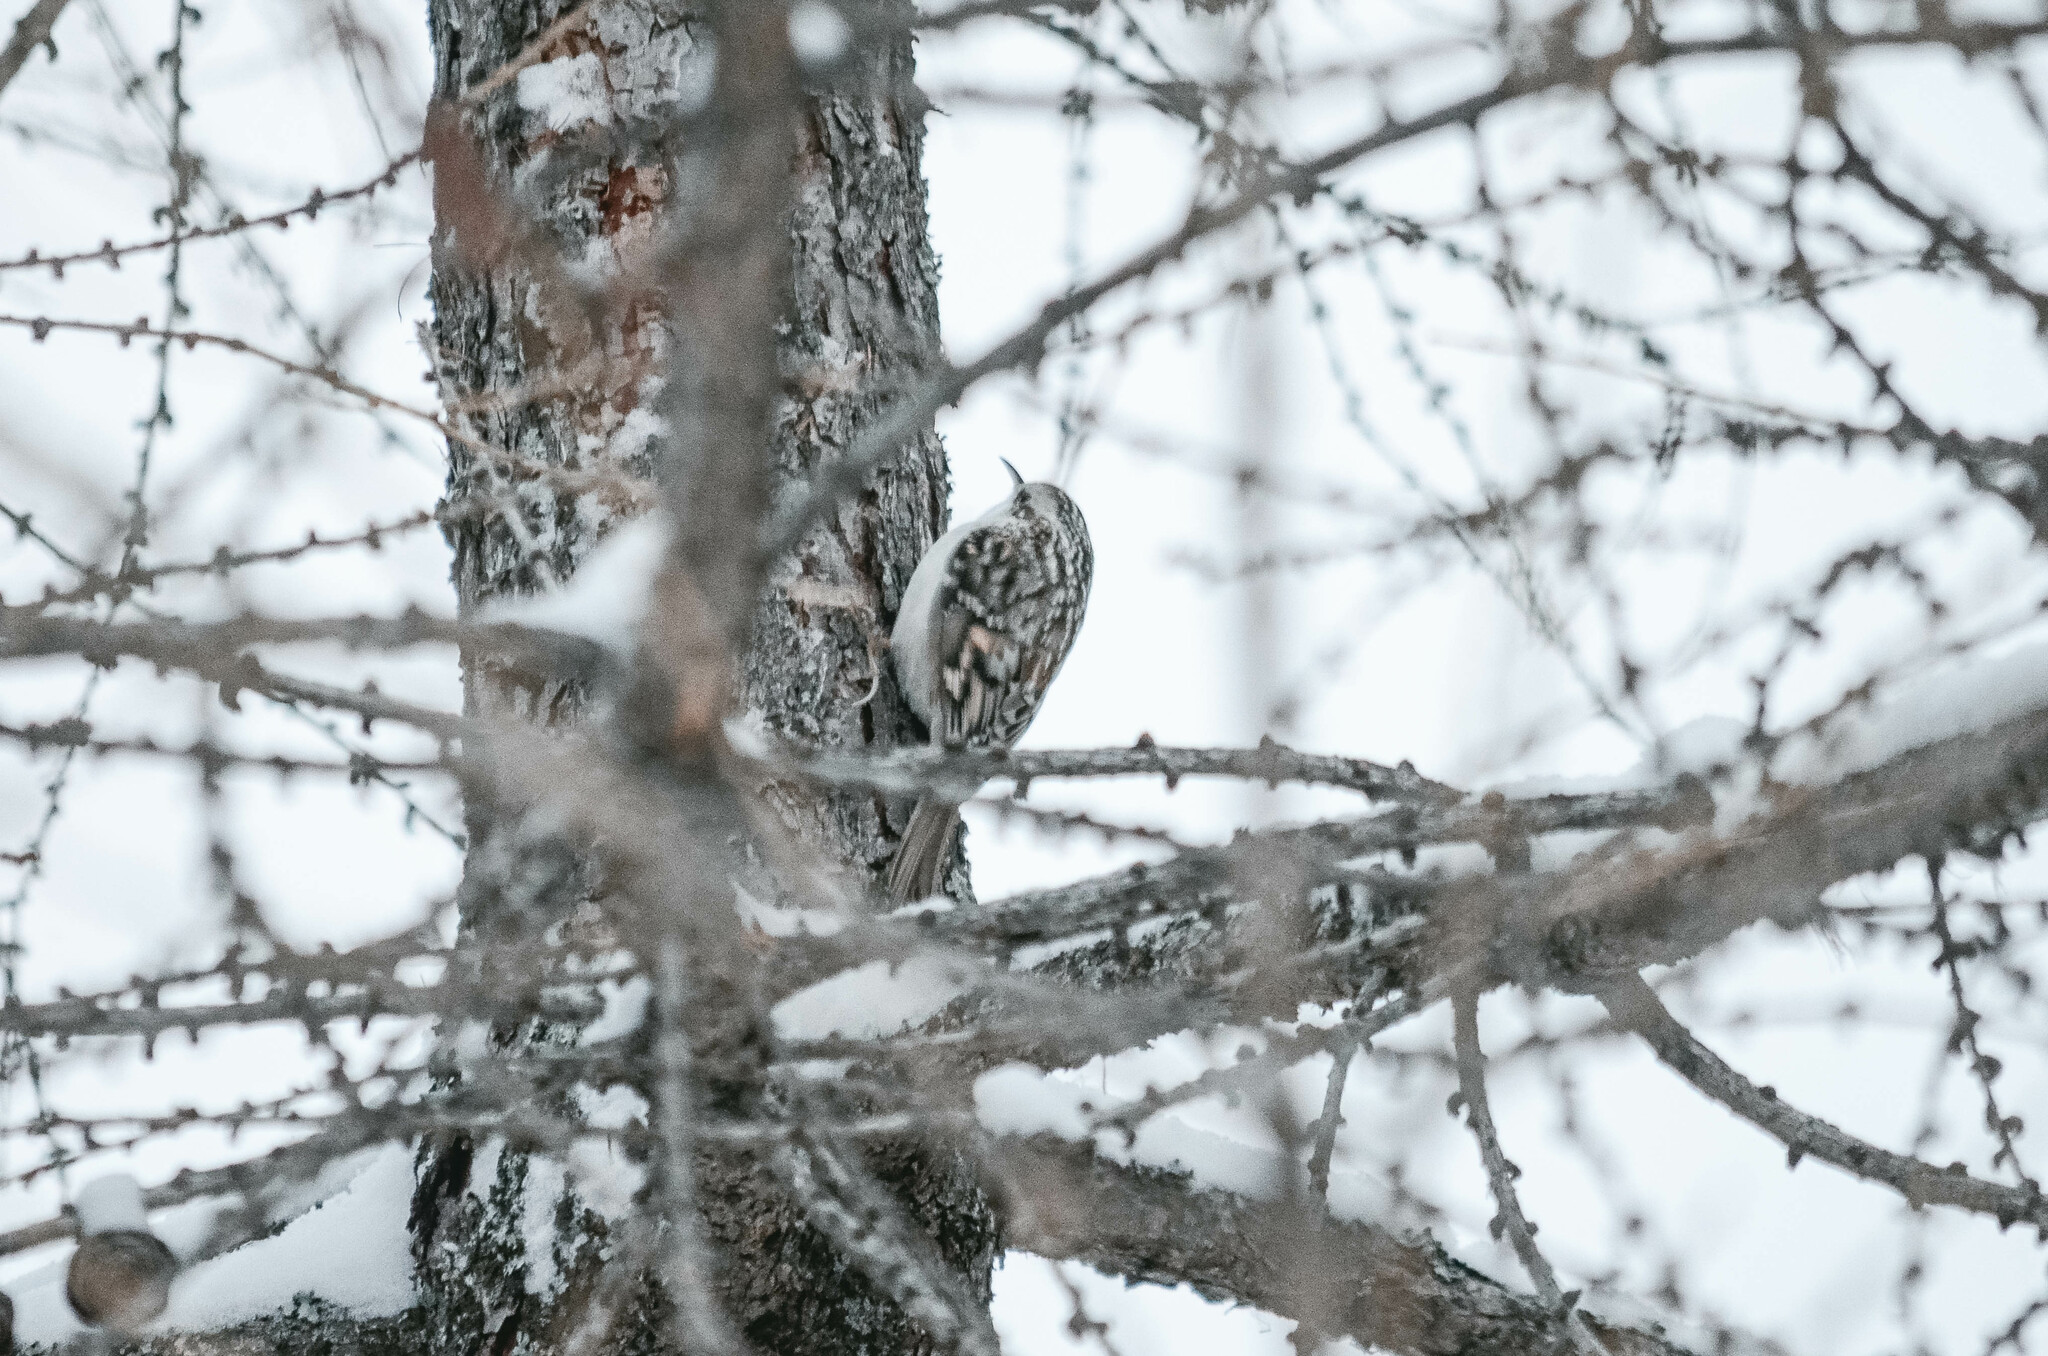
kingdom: Animalia
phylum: Chordata
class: Aves
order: Passeriformes
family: Certhiidae
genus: Certhia
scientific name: Certhia familiaris
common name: Eurasian treecreeper
